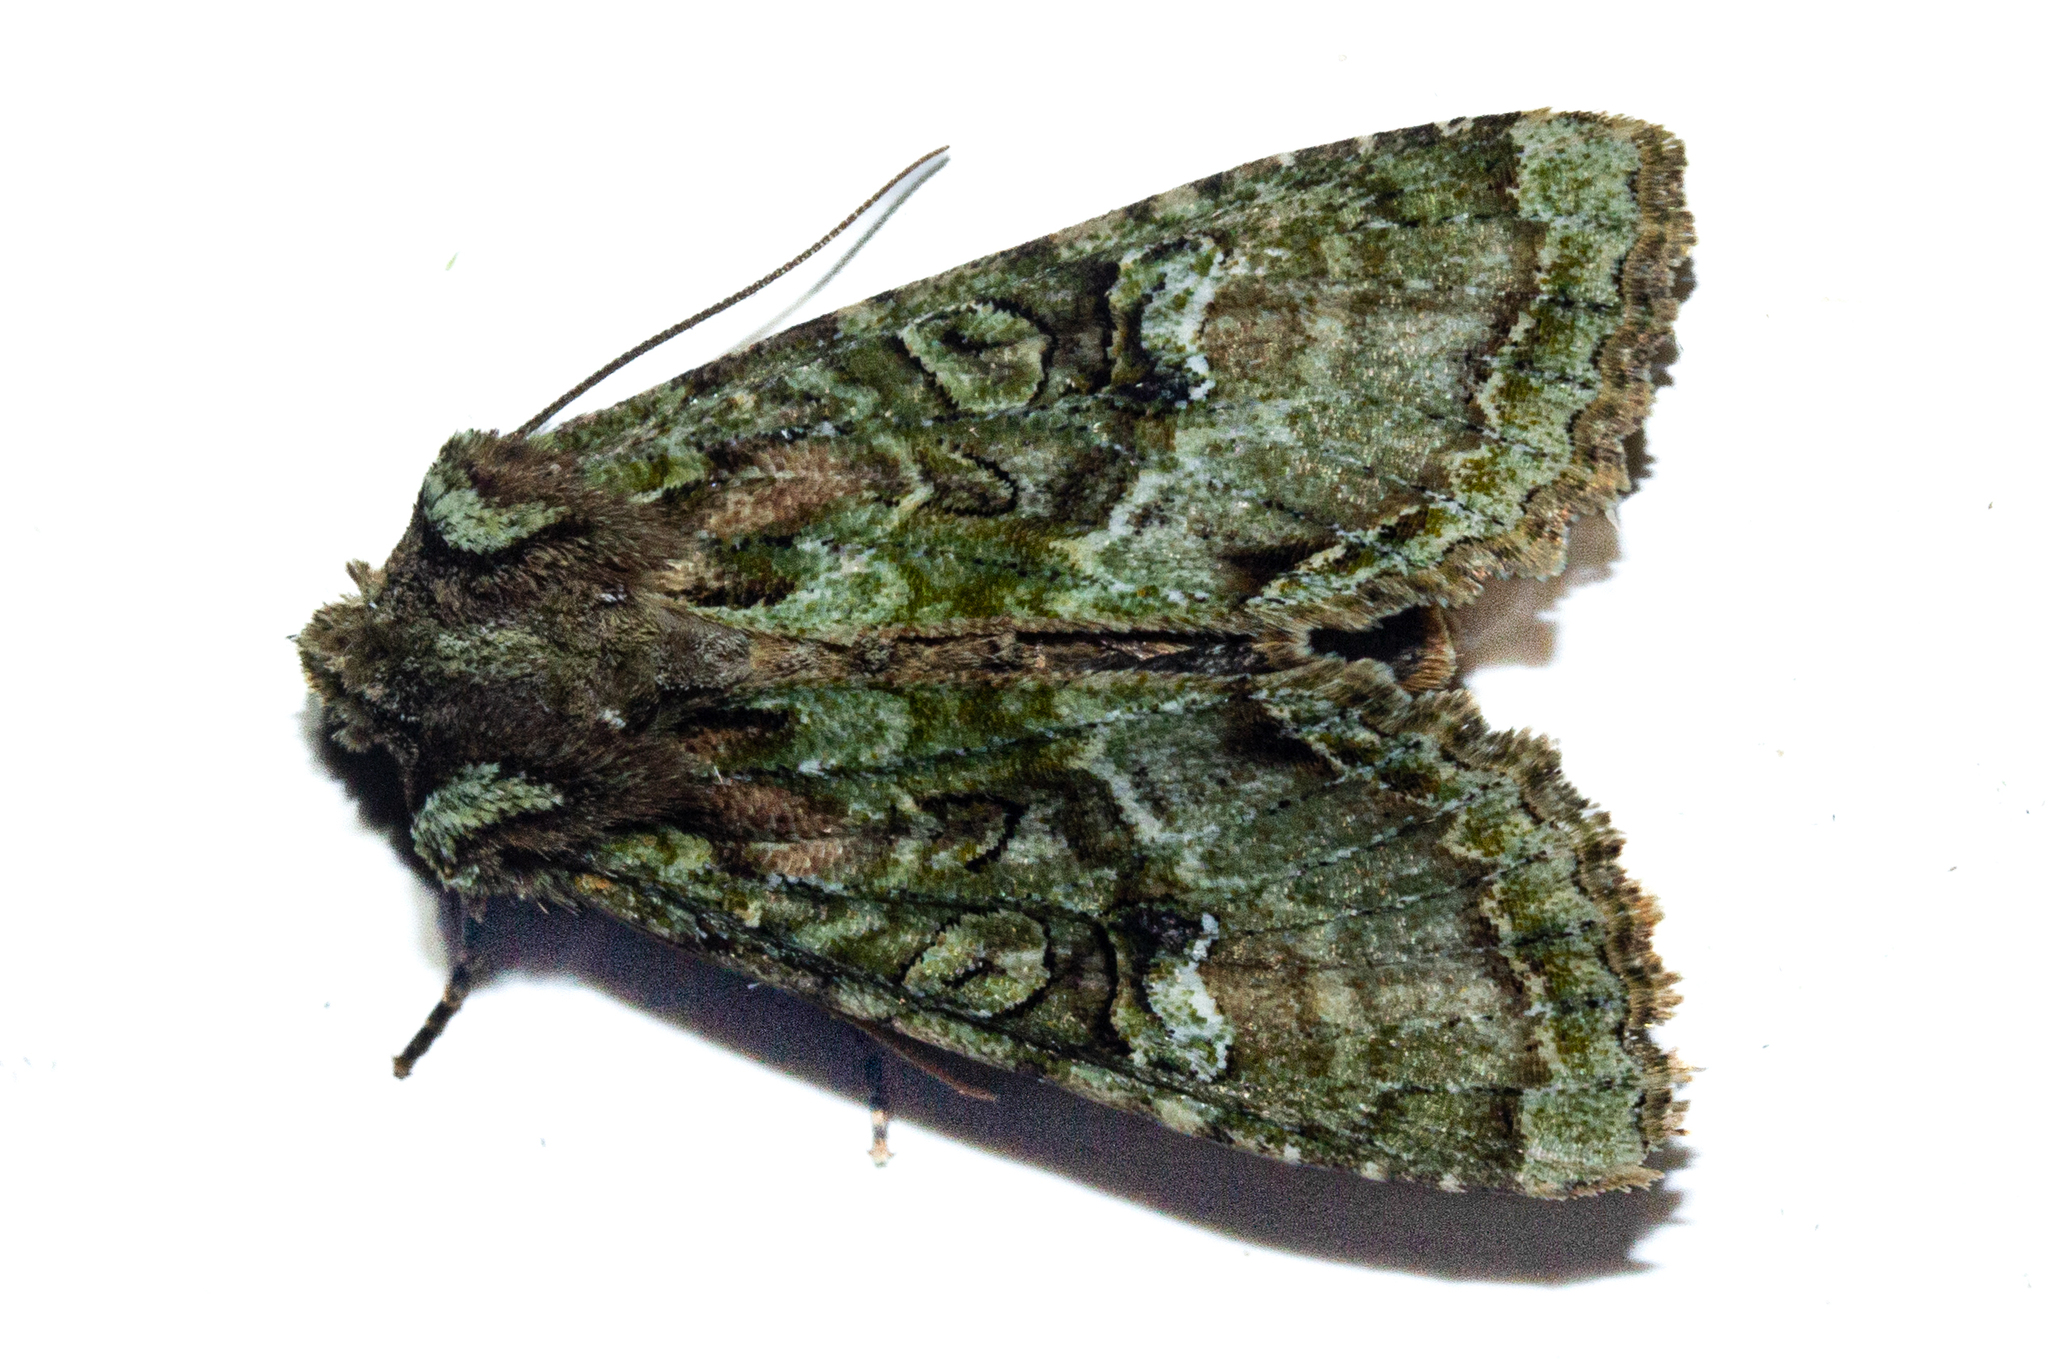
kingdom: Animalia
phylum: Arthropoda
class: Insecta
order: Lepidoptera
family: Noctuidae
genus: Meterana
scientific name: Meterana
